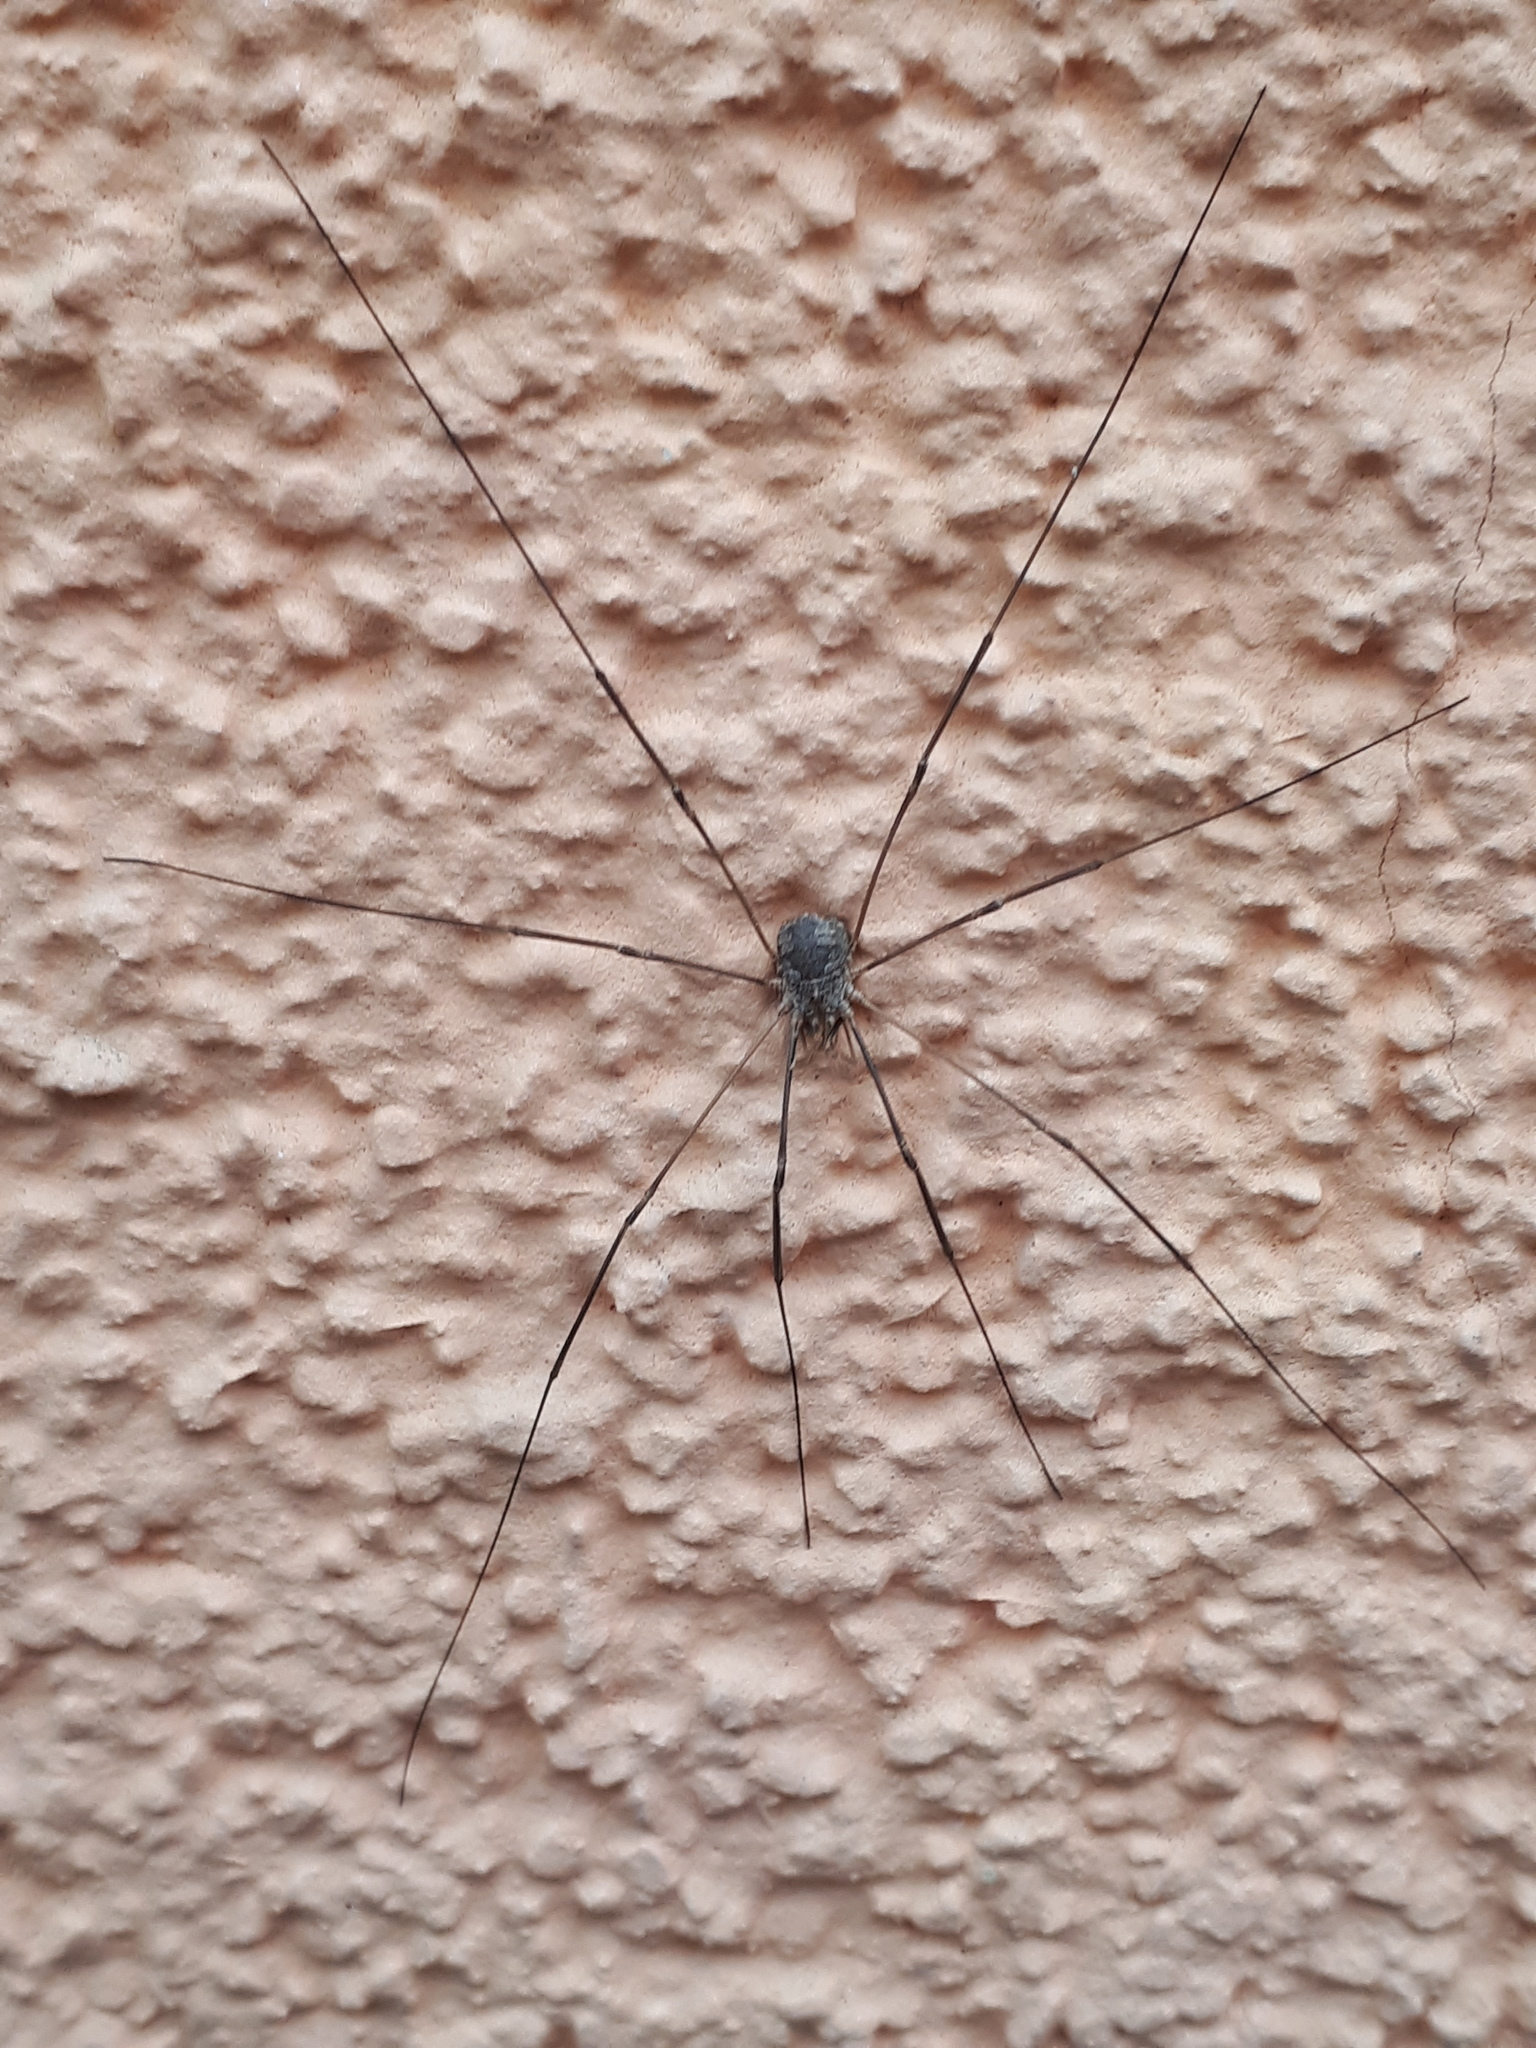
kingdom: Animalia
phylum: Arthropoda
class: Arachnida
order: Opiliones
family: Phalangiidae
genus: Phalangium
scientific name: Phalangium opilio
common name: Daddy longleg
